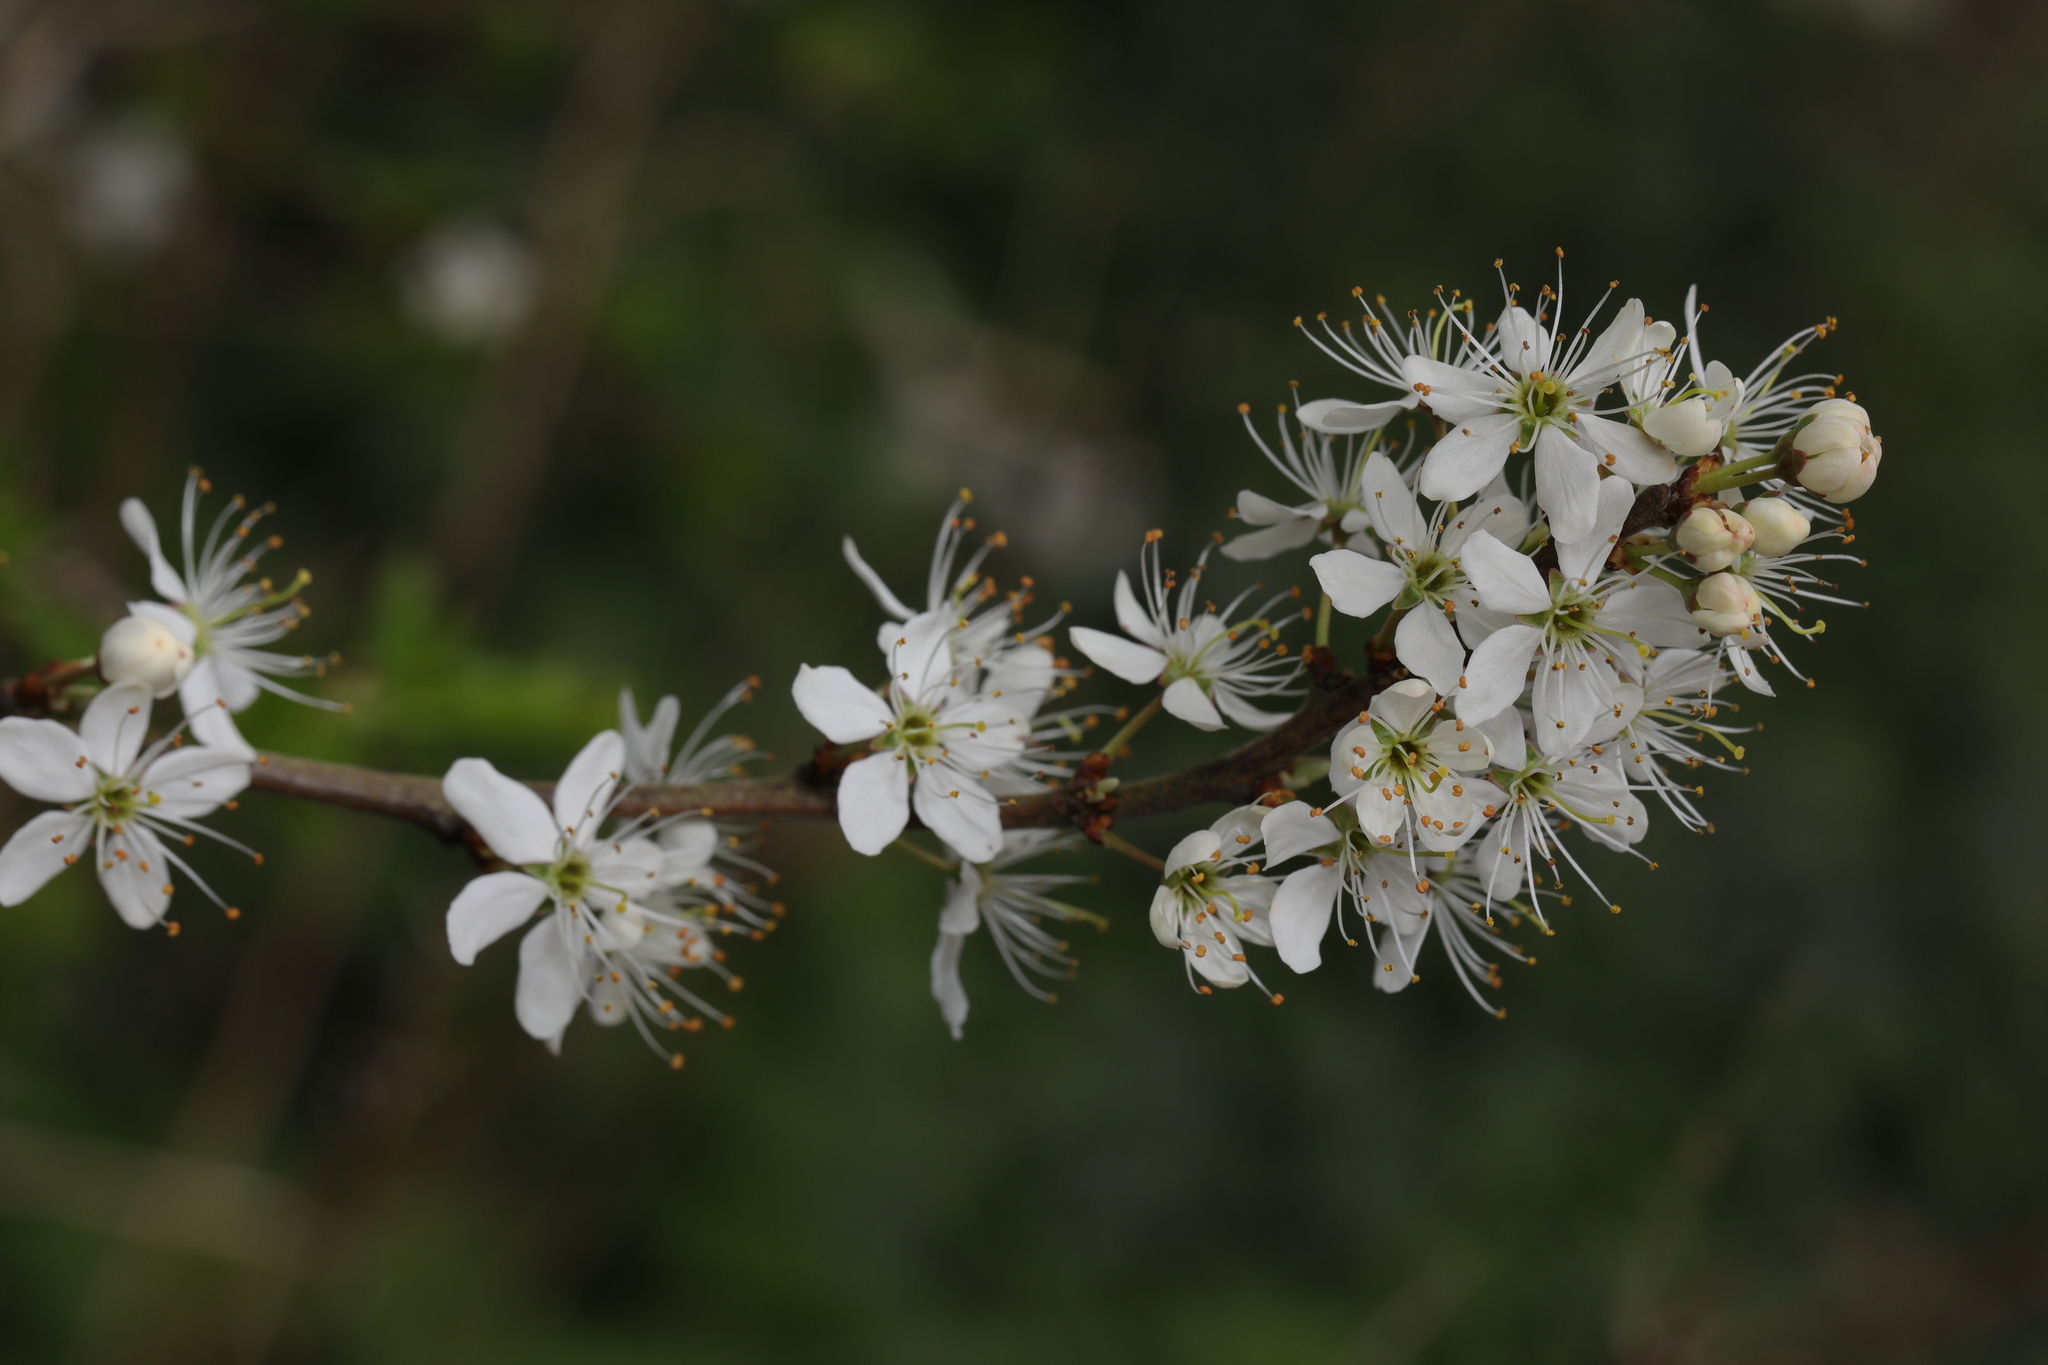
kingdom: Plantae
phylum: Tracheophyta
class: Magnoliopsida
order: Rosales
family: Rosaceae
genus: Prunus
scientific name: Prunus spinosa
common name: Blackthorn
